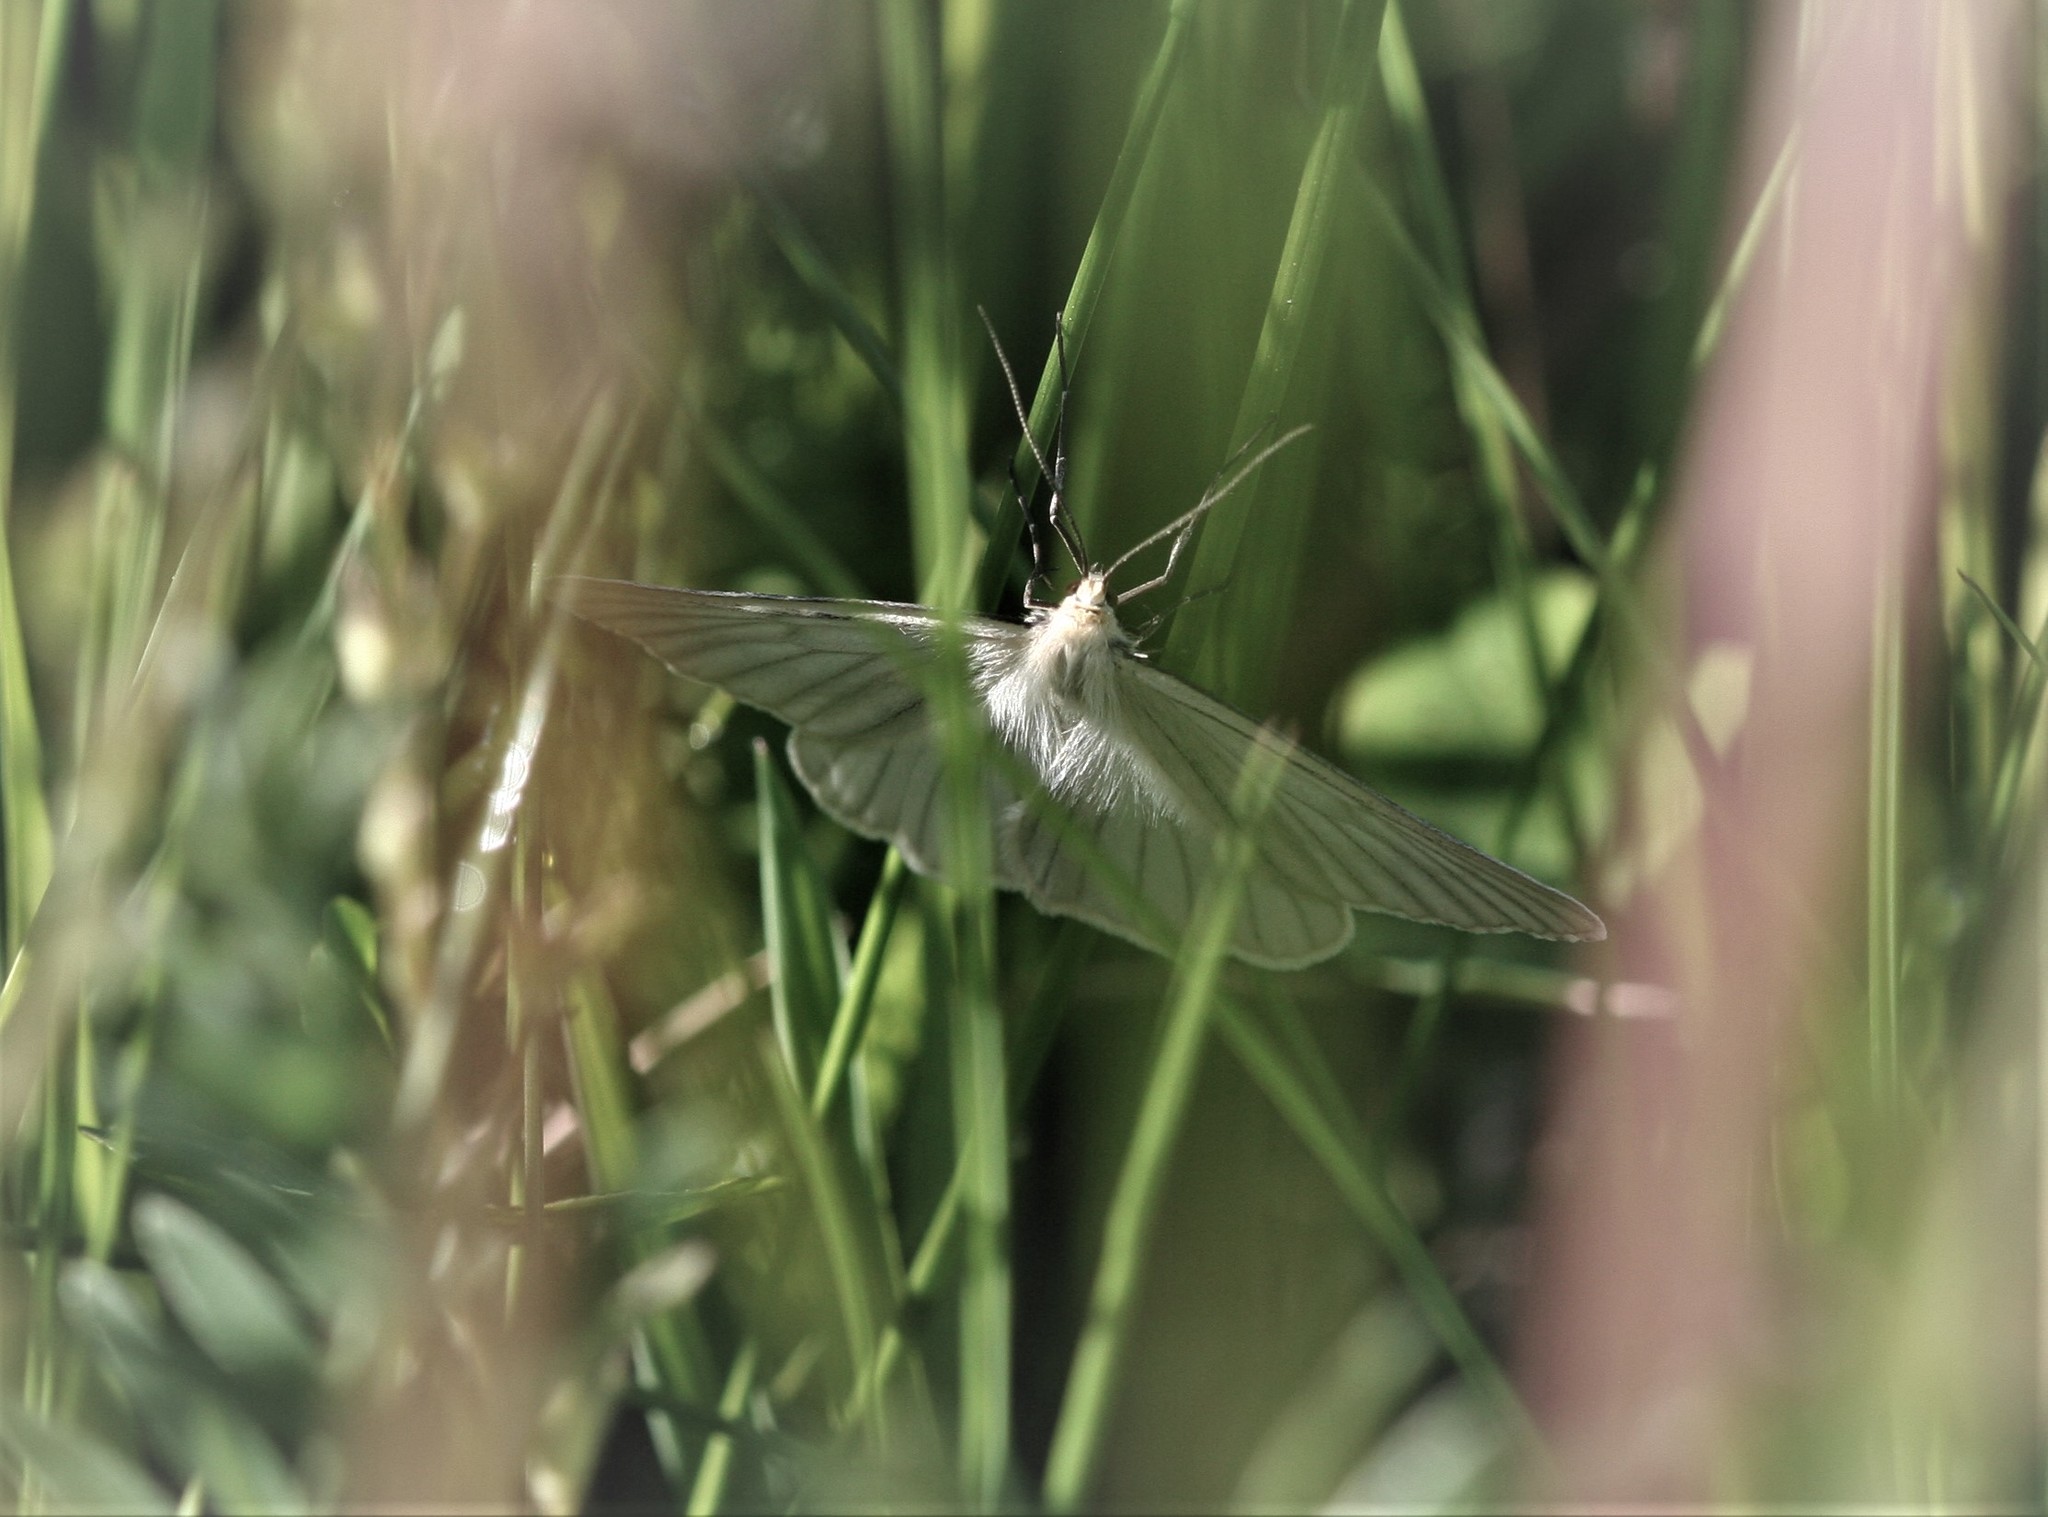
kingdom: Animalia
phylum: Arthropoda
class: Insecta
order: Lepidoptera
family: Geometridae
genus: Siona
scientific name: Siona lineata
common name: Black-veined moth
